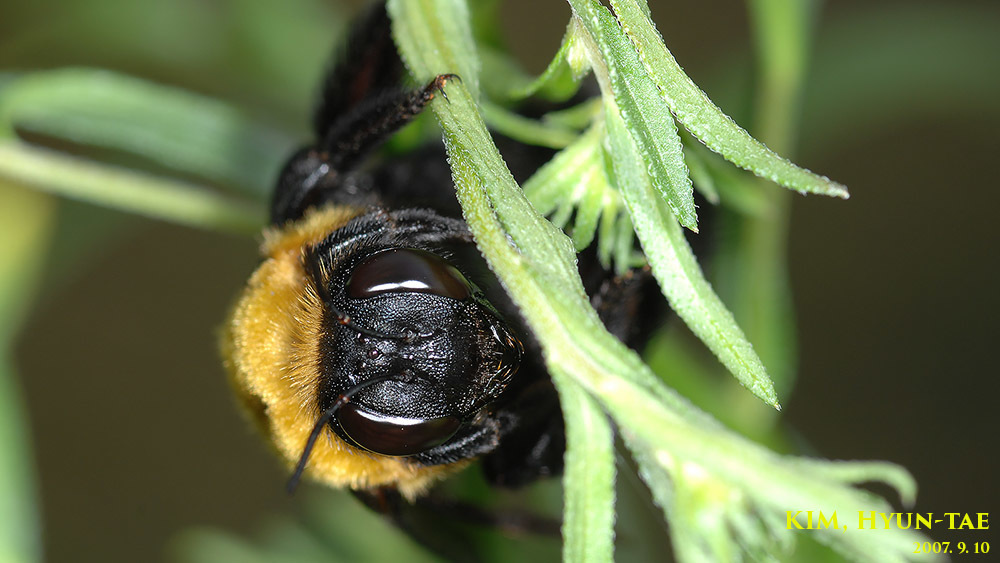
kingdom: Animalia
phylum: Arthropoda
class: Insecta
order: Hymenoptera
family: Apidae
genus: Xylocopa
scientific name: Xylocopa appendiculata
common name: Japanese carpenter bee
